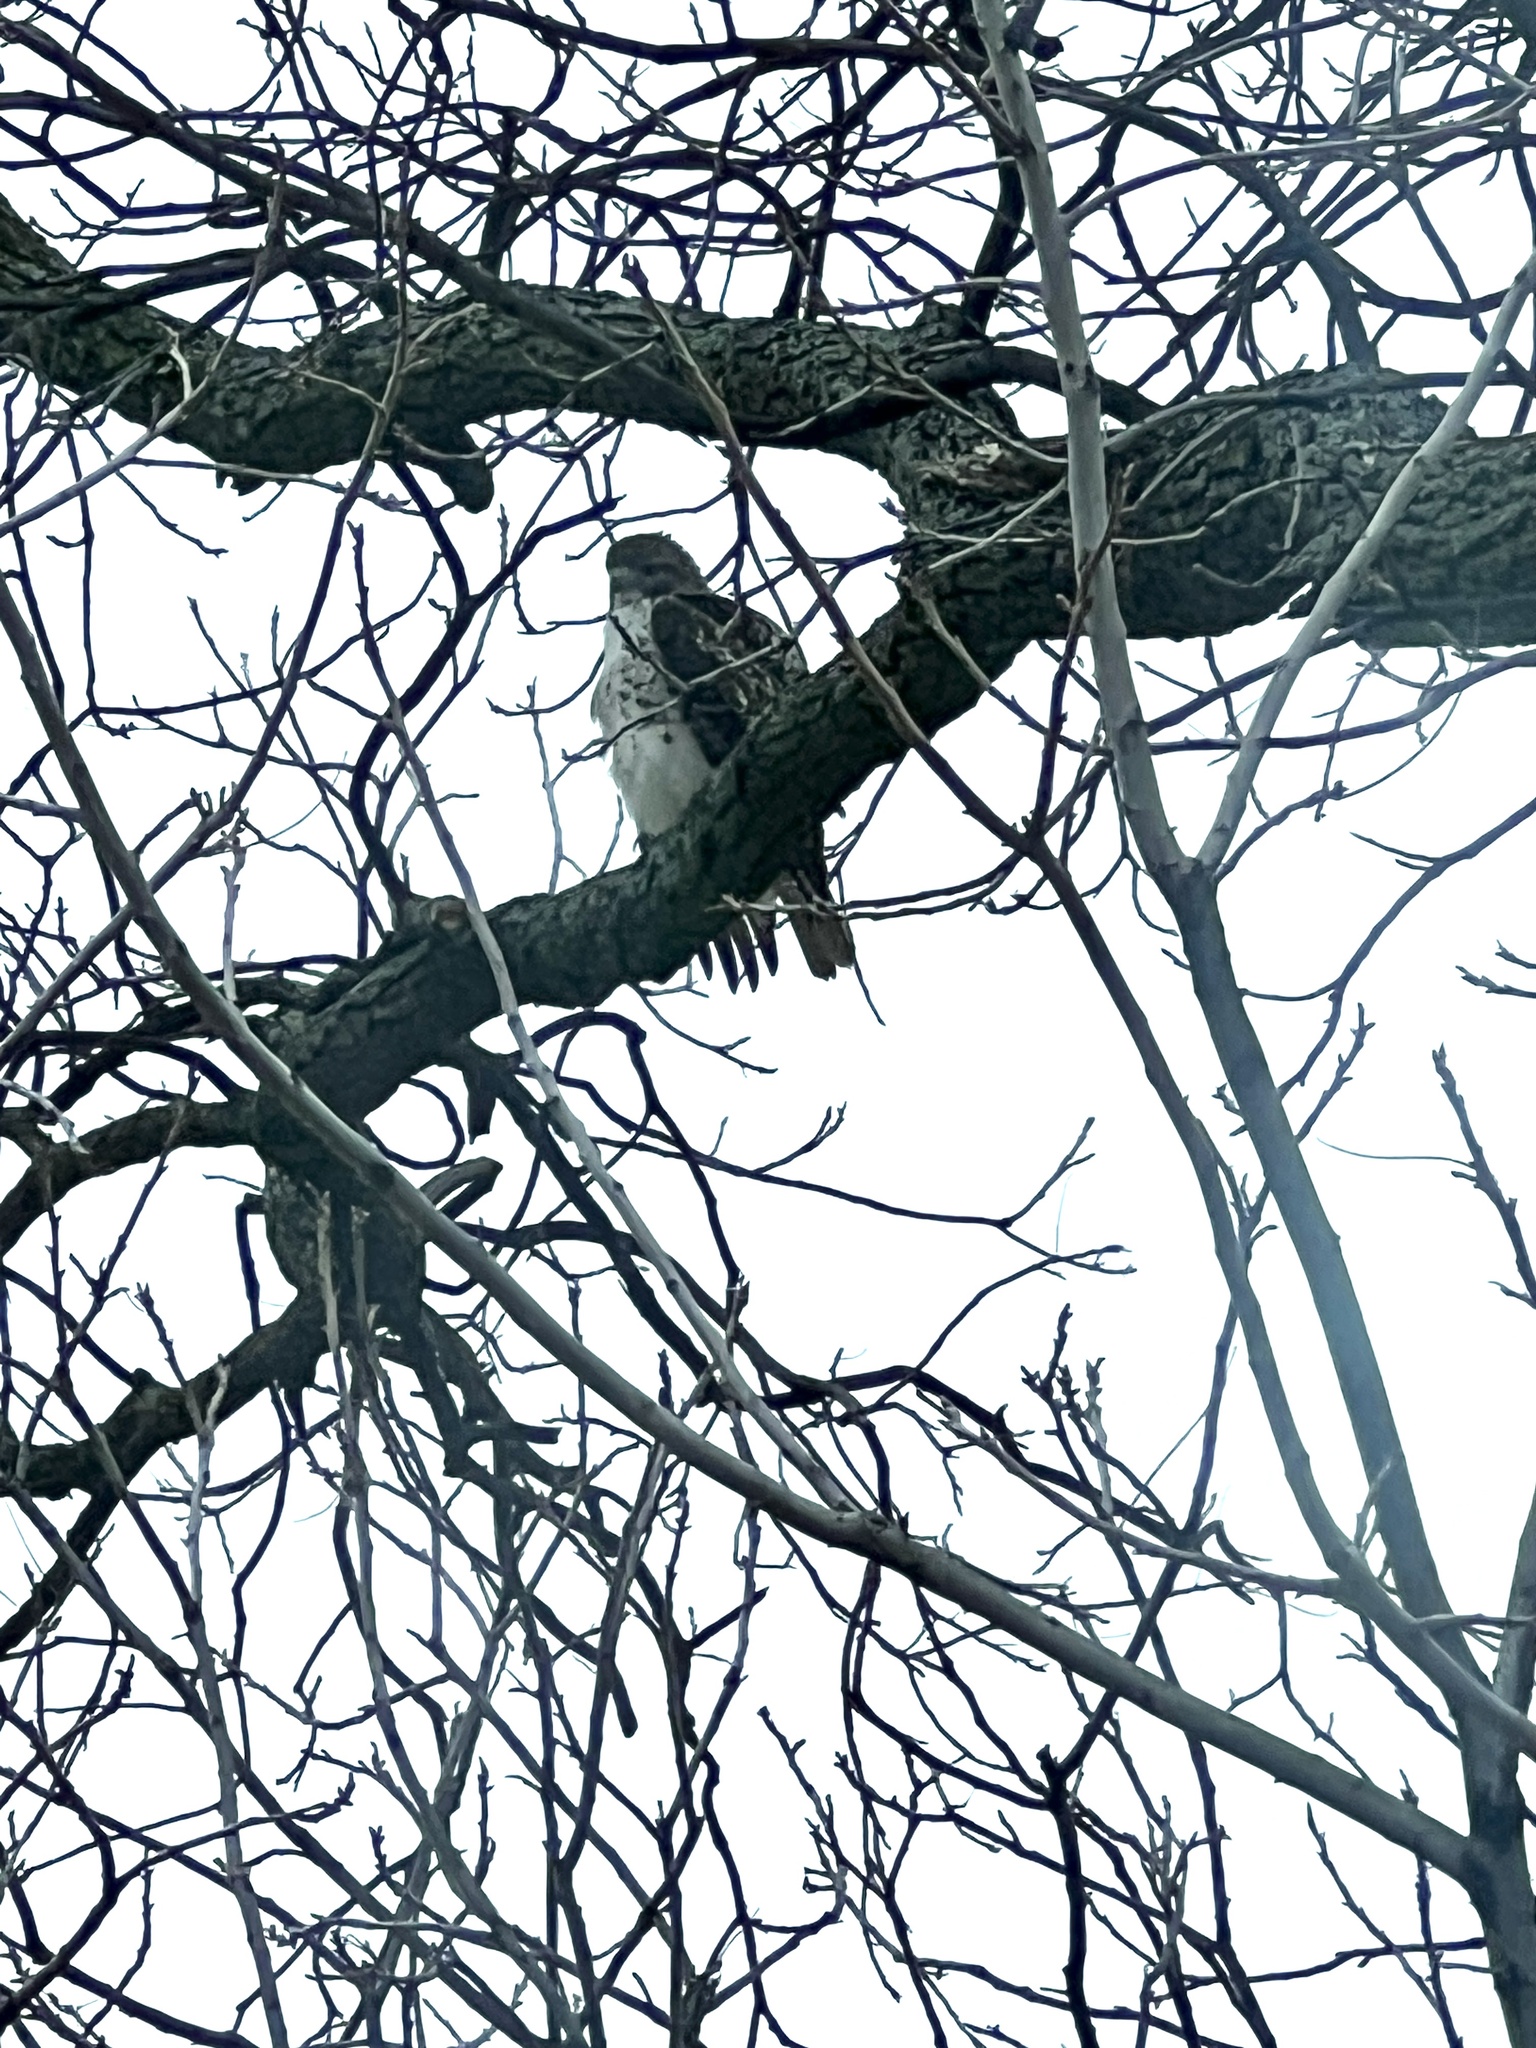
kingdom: Animalia
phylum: Chordata
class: Aves
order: Accipitriformes
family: Accipitridae
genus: Buteo
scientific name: Buteo jamaicensis
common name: Red-tailed hawk
